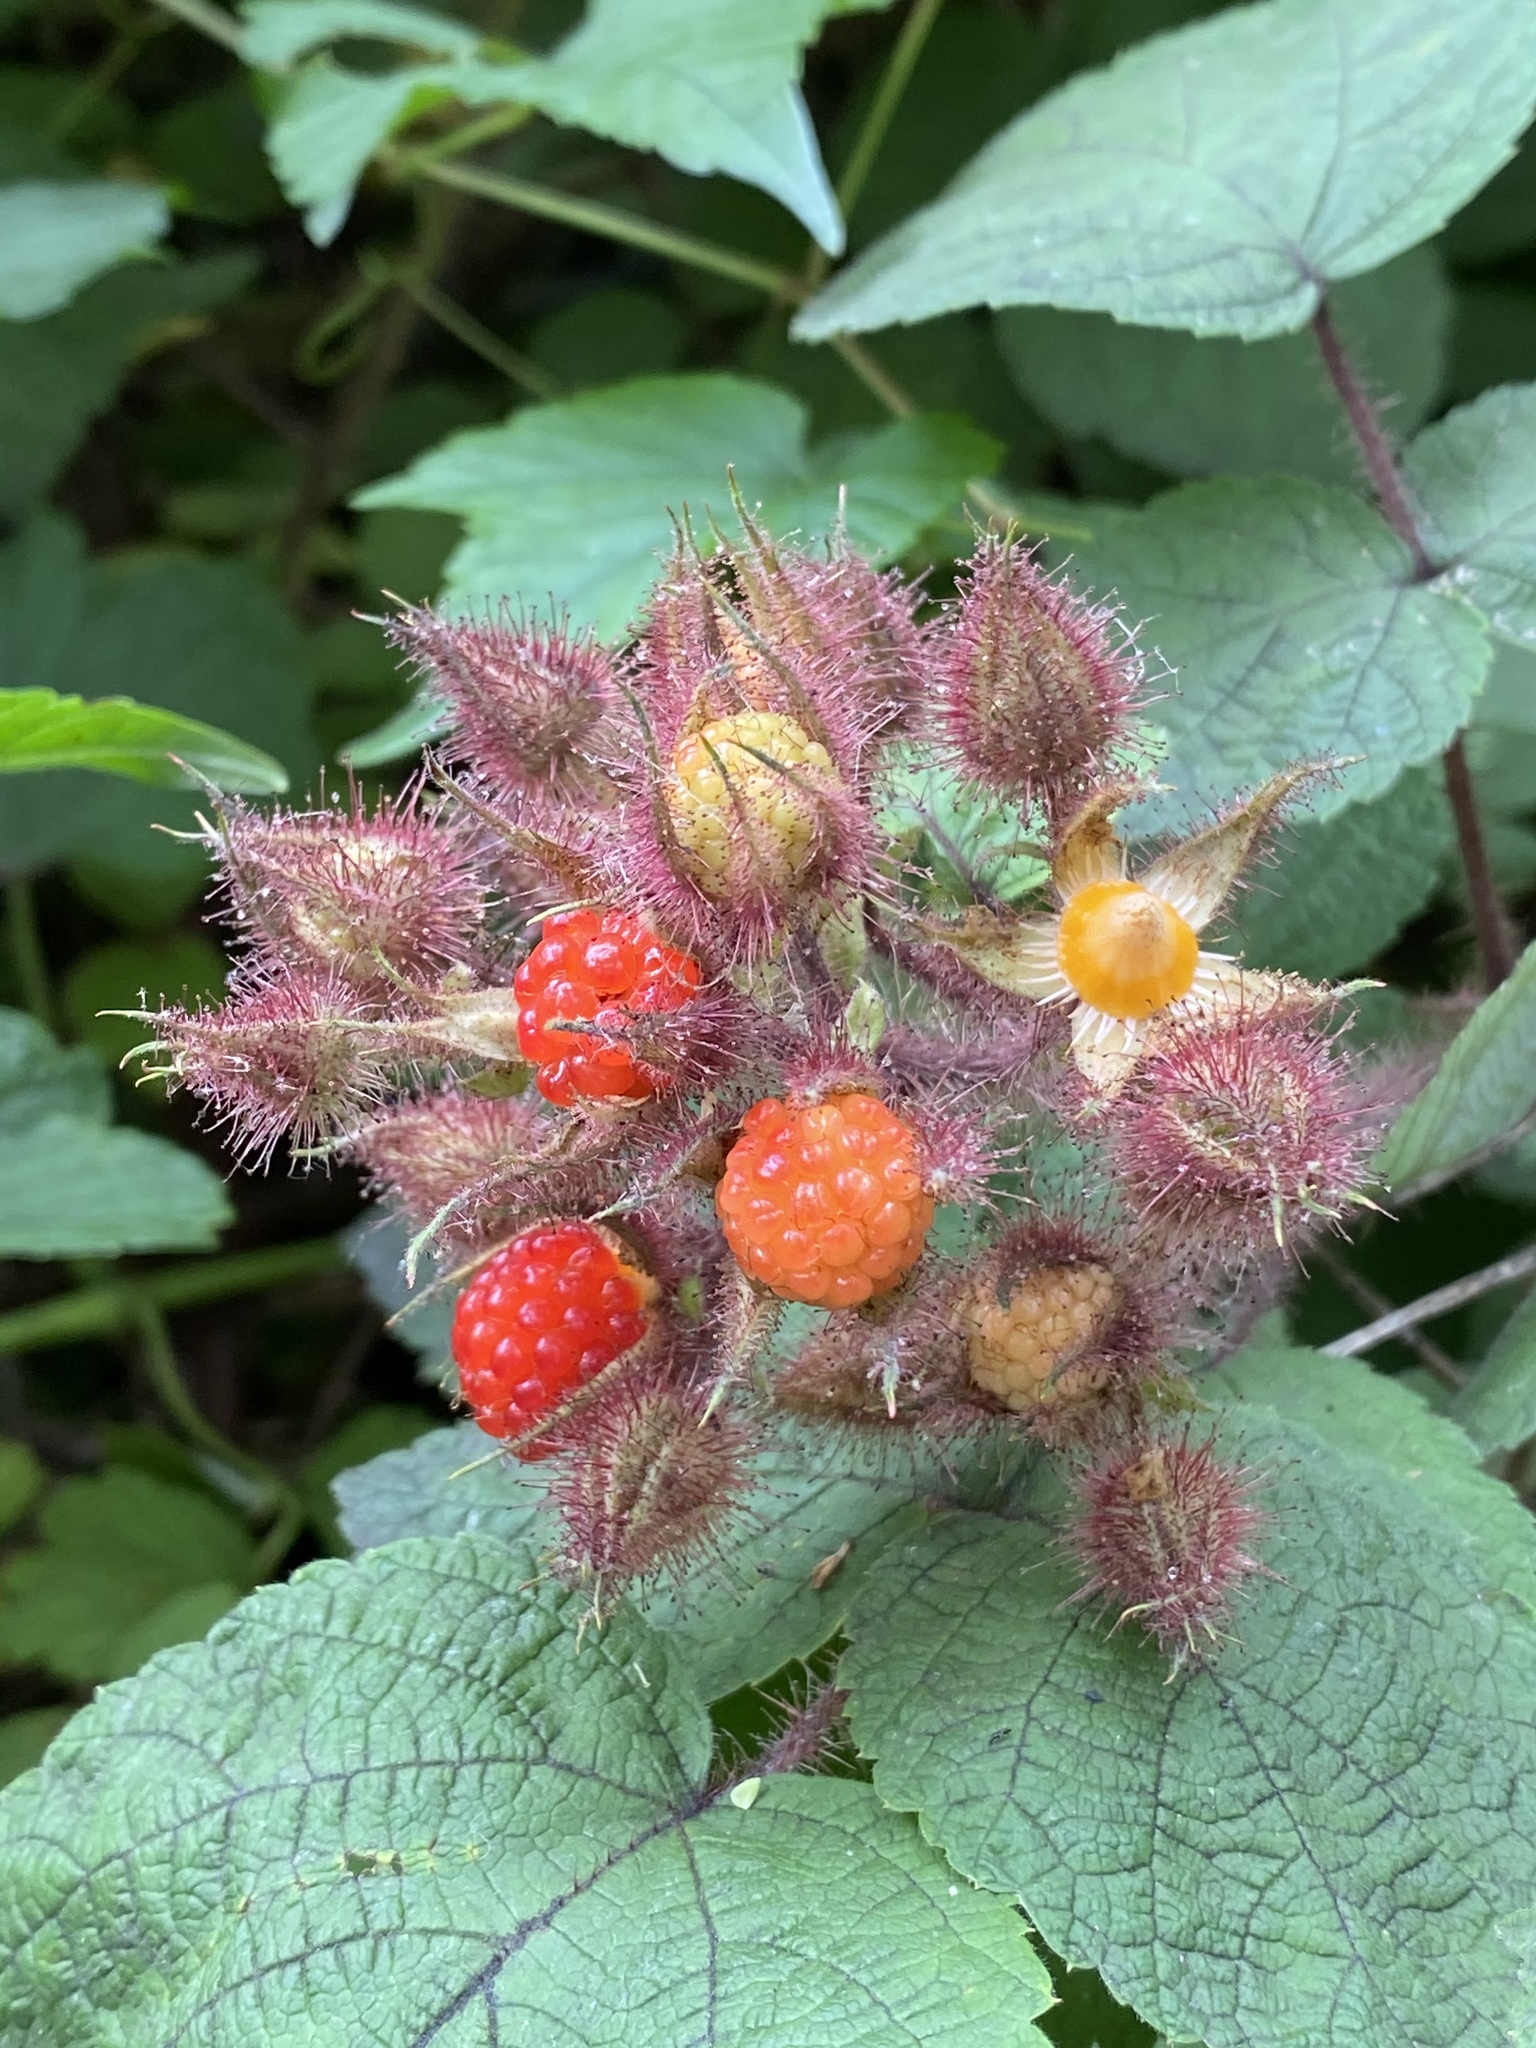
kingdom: Plantae
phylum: Tracheophyta
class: Magnoliopsida
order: Rosales
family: Rosaceae
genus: Rubus
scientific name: Rubus phoenicolasius
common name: Japanese wineberry
